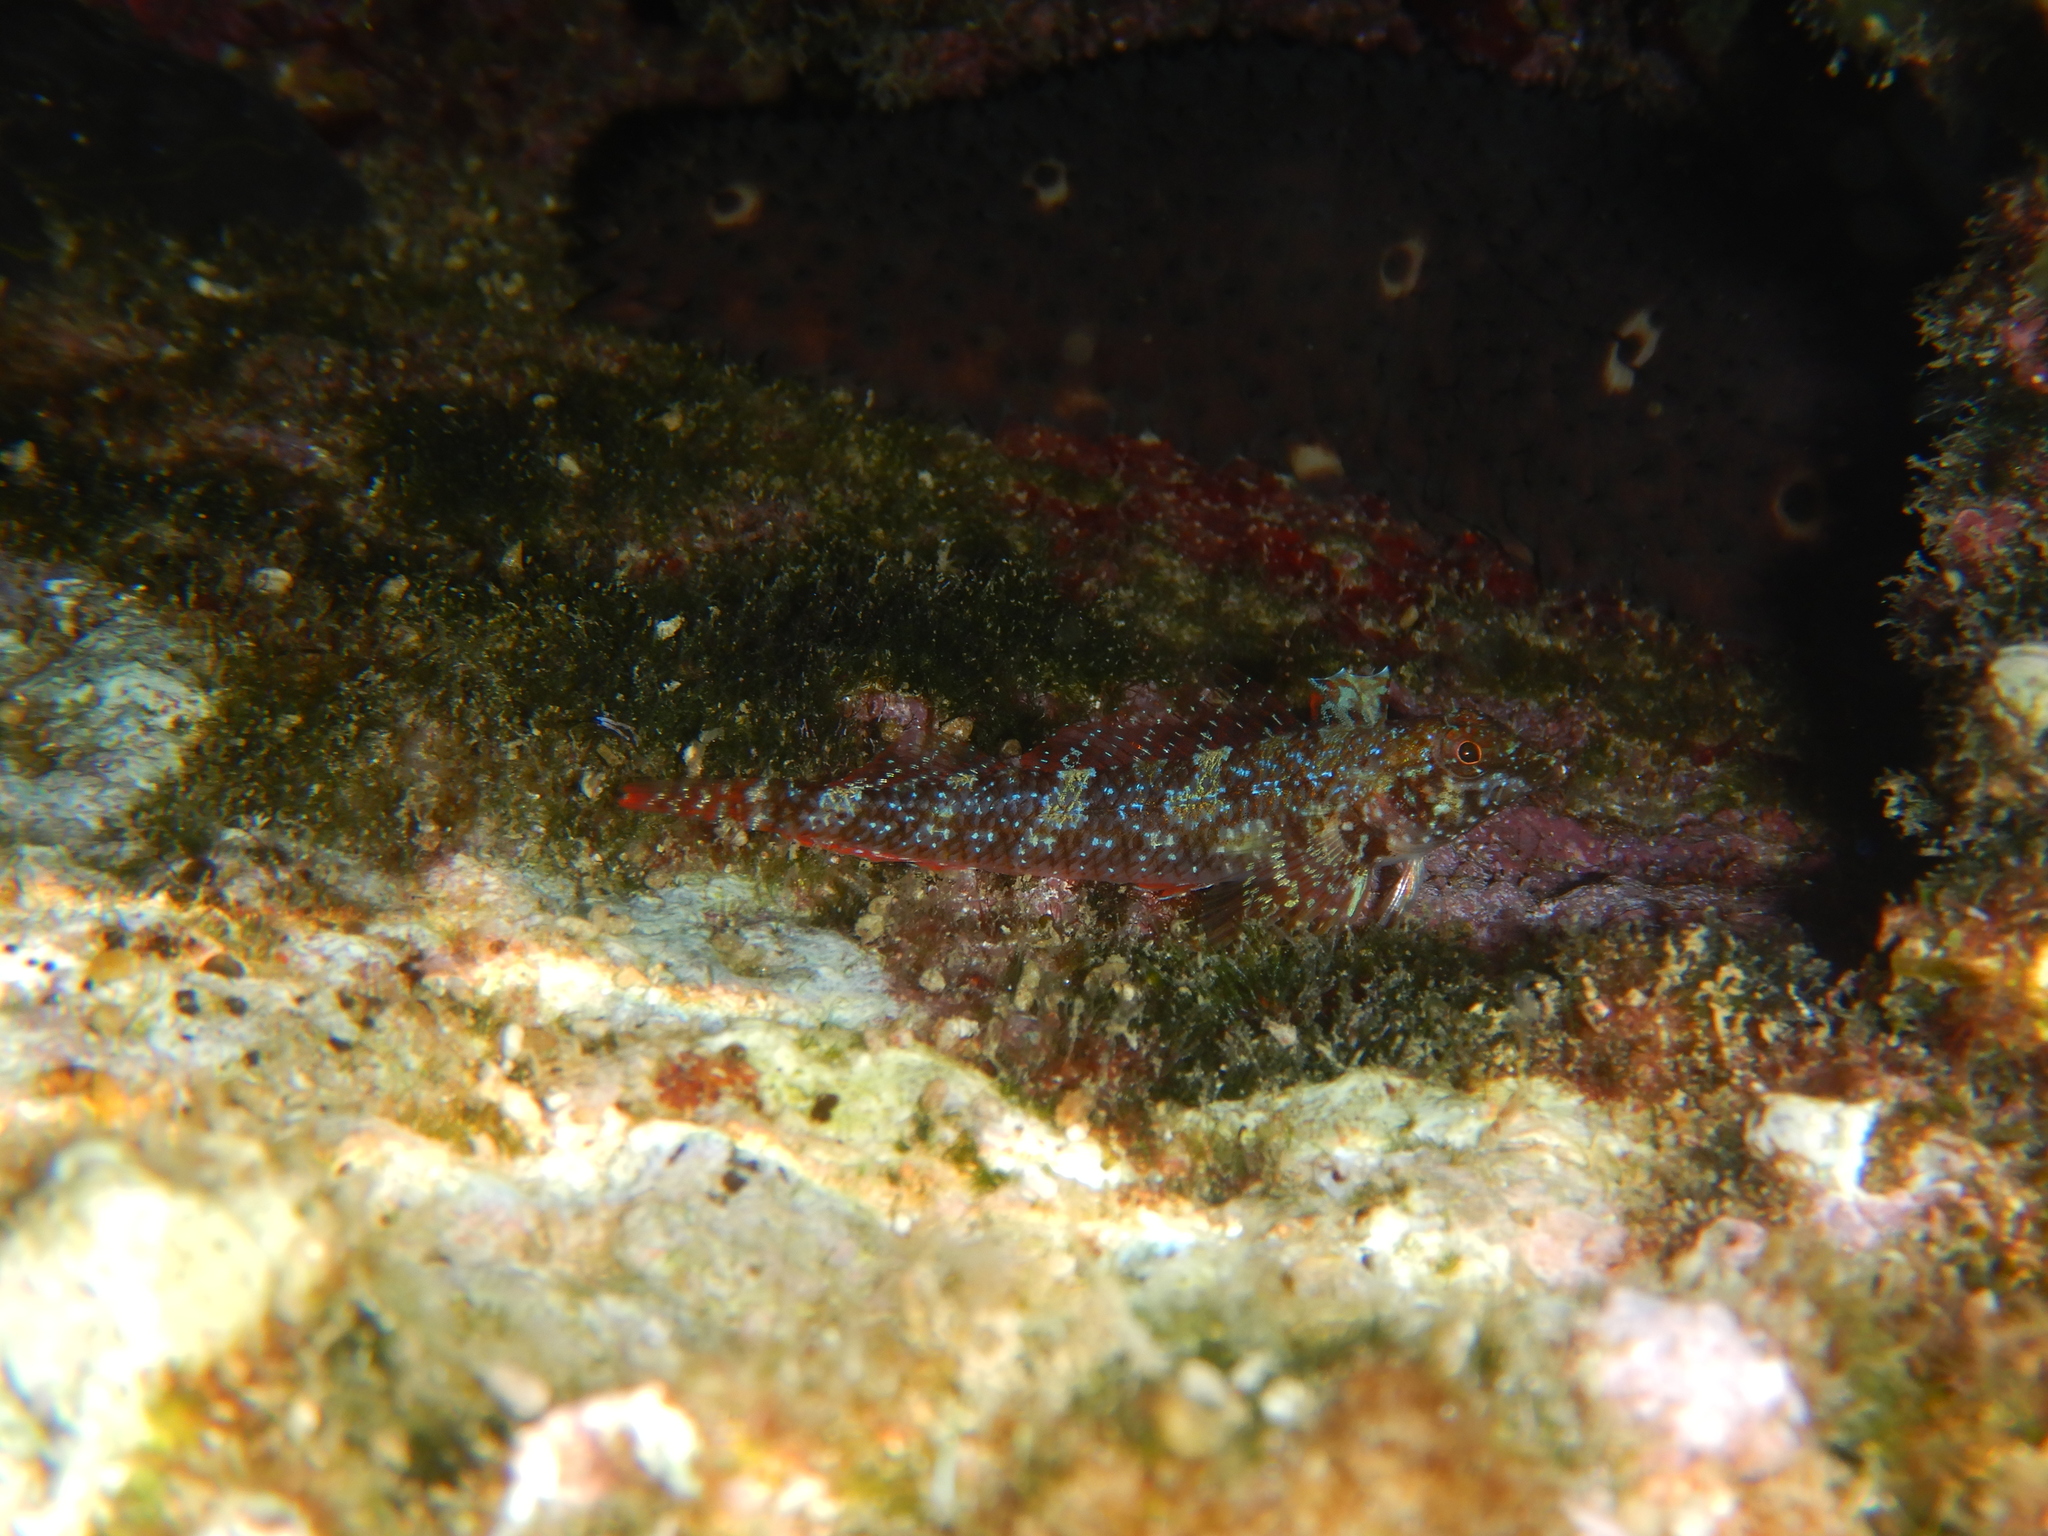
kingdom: Animalia
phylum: Chordata
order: Perciformes
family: Tripterygiidae
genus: Tripterygion
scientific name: Tripterygion tripteronotum
